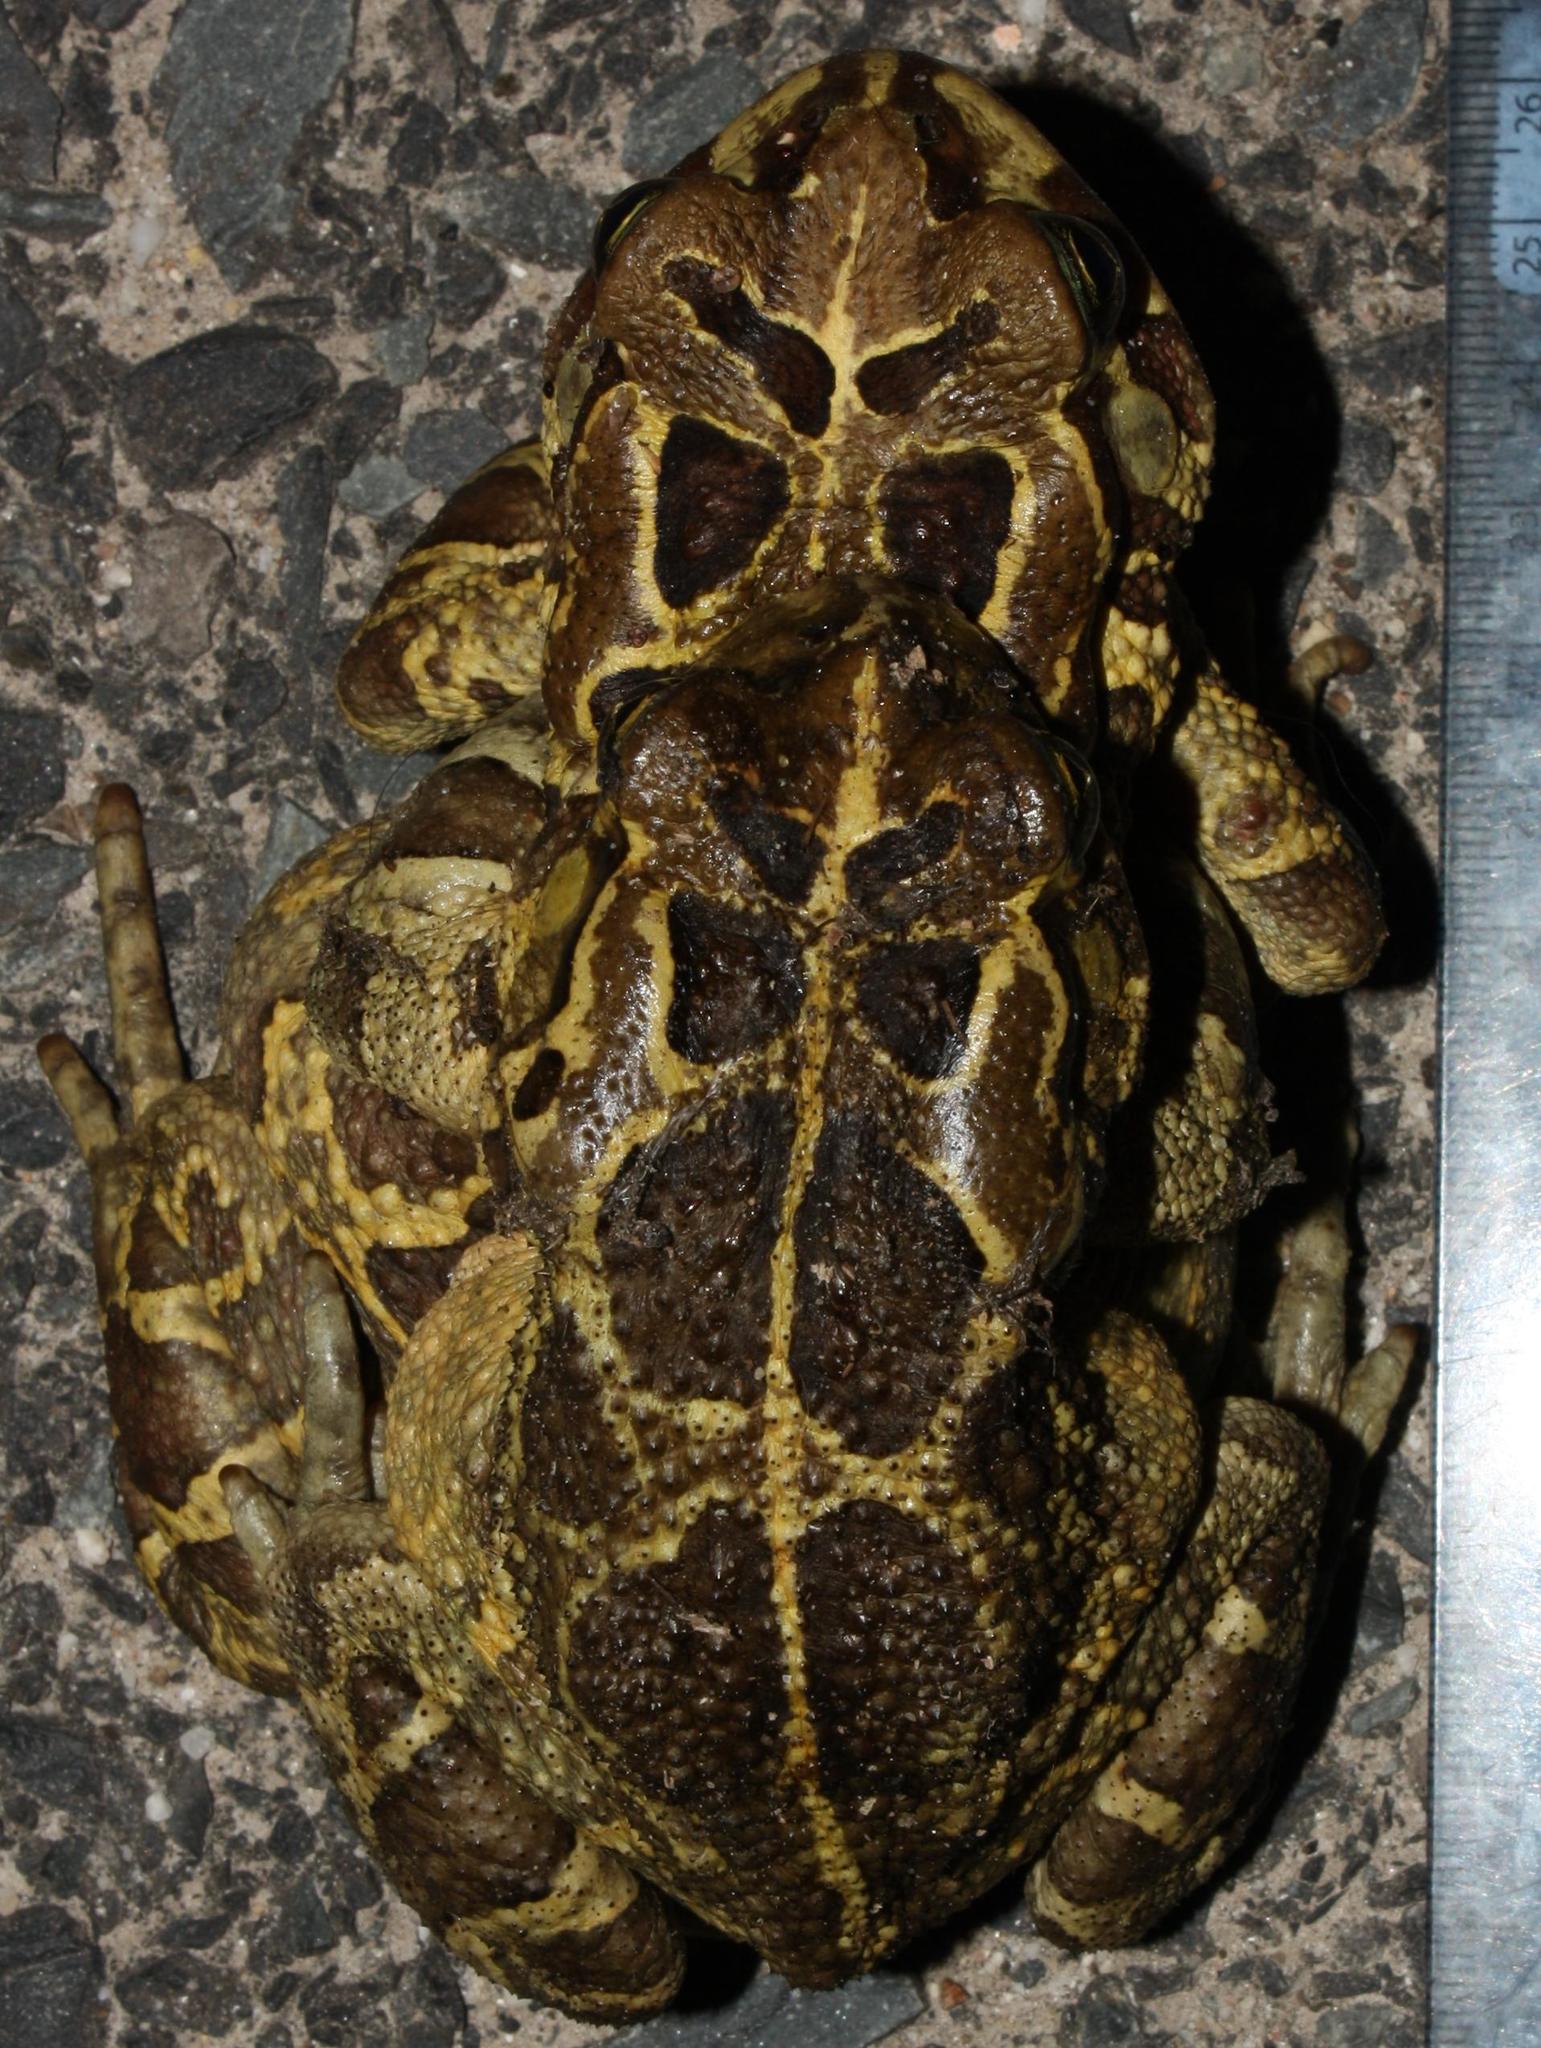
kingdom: Animalia
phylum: Chordata
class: Amphibia
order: Anura
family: Bufonidae
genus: Sclerophrys
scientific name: Sclerophrys pantherina
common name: Panther toad
